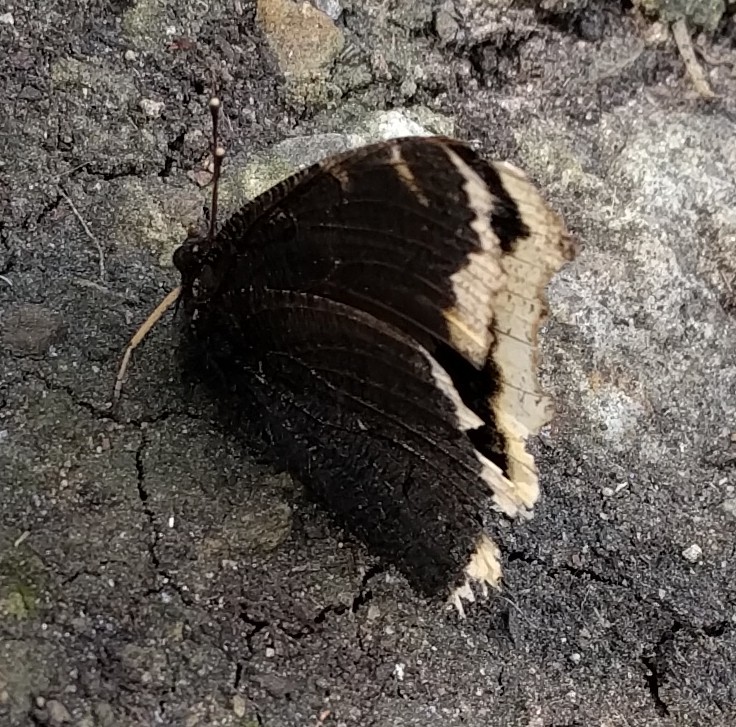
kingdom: Animalia
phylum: Arthropoda
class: Insecta
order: Lepidoptera
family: Nymphalidae
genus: Nymphalis
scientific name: Nymphalis antiopa
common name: Camberwell beauty
